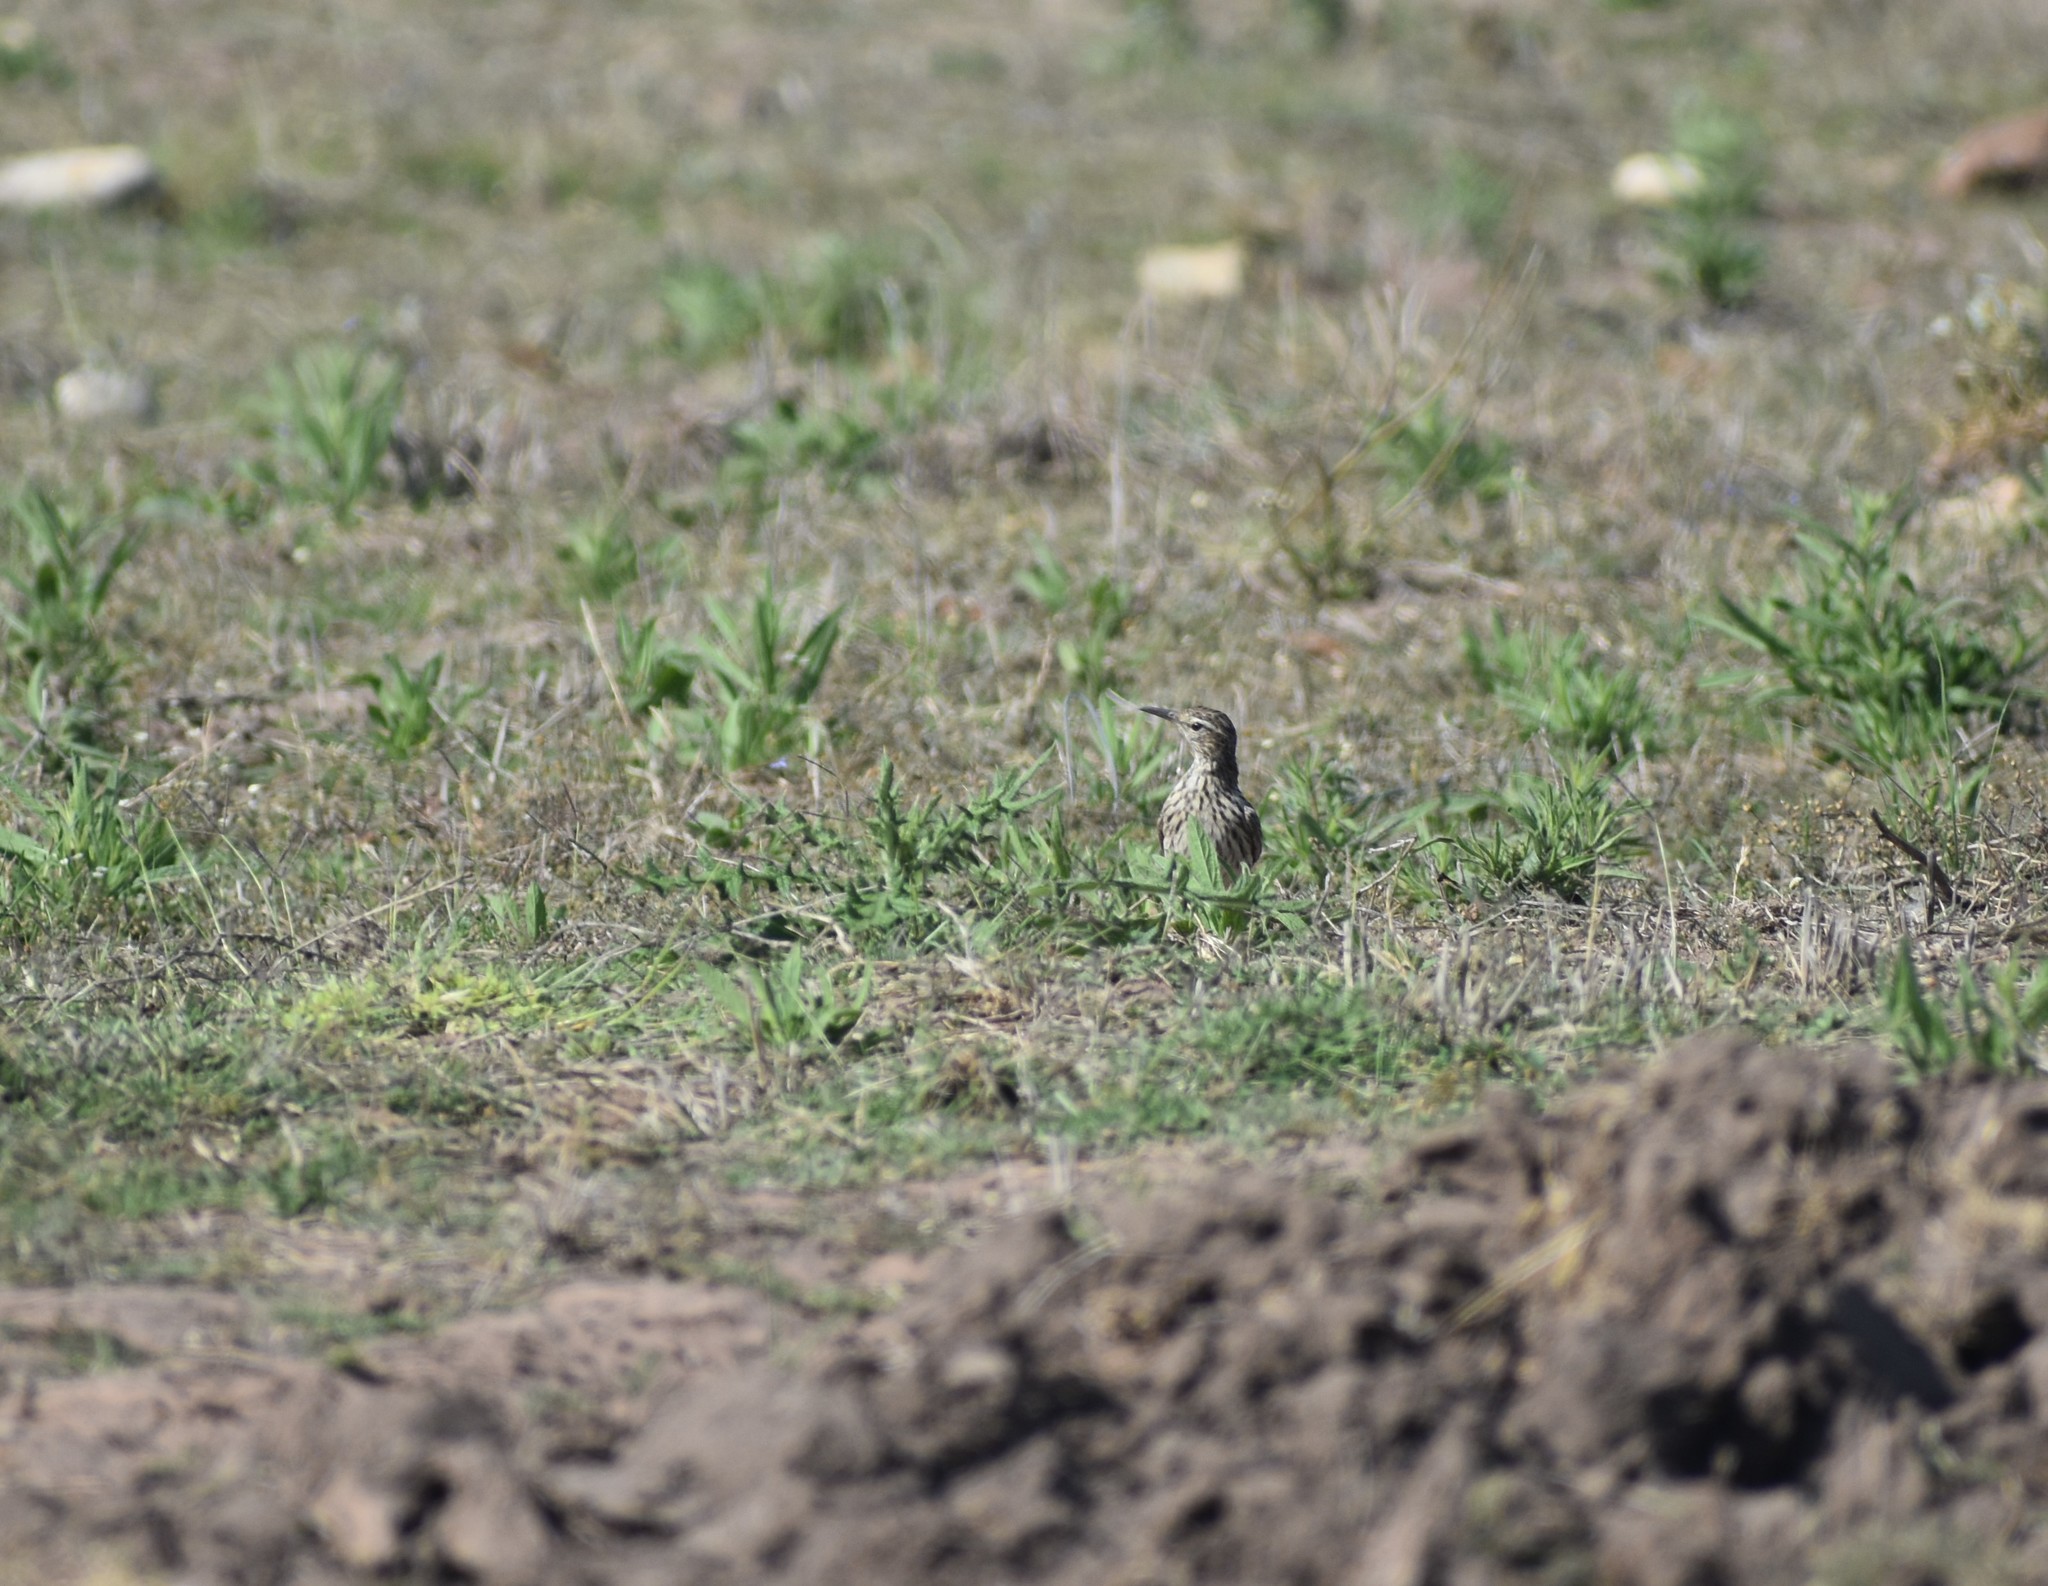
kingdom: Animalia
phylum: Chordata
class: Aves
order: Passeriformes
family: Alaudidae
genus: Certhilauda
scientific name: Certhilauda curvirostris
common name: Cape long-billed lark
